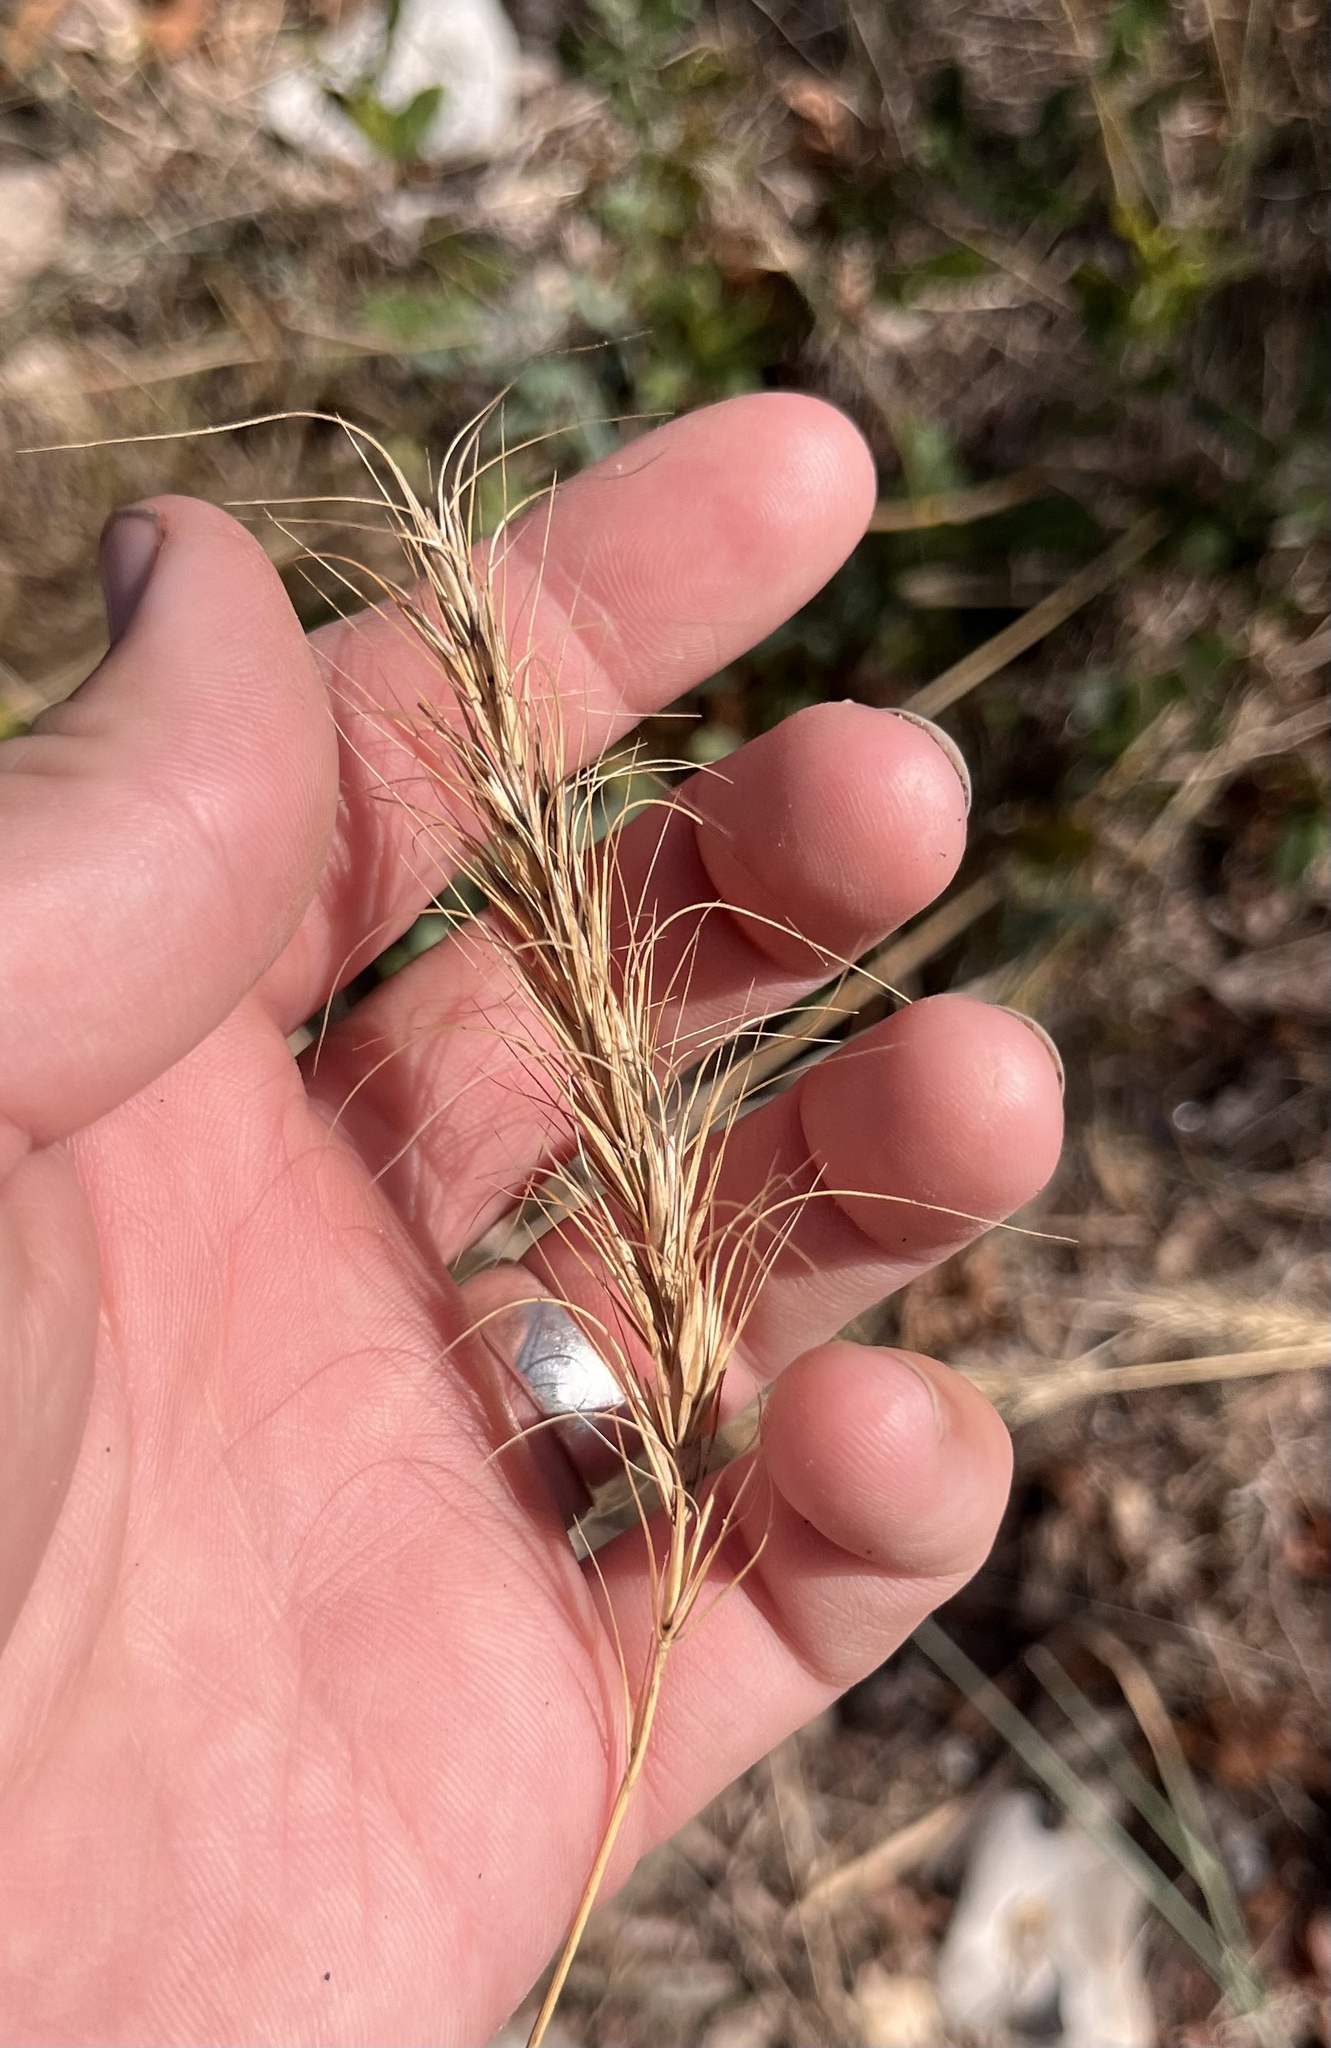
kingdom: Plantae
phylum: Tracheophyta
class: Liliopsida
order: Poales
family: Poaceae
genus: Elymus
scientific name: Elymus canadensis
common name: Canada wild rye
